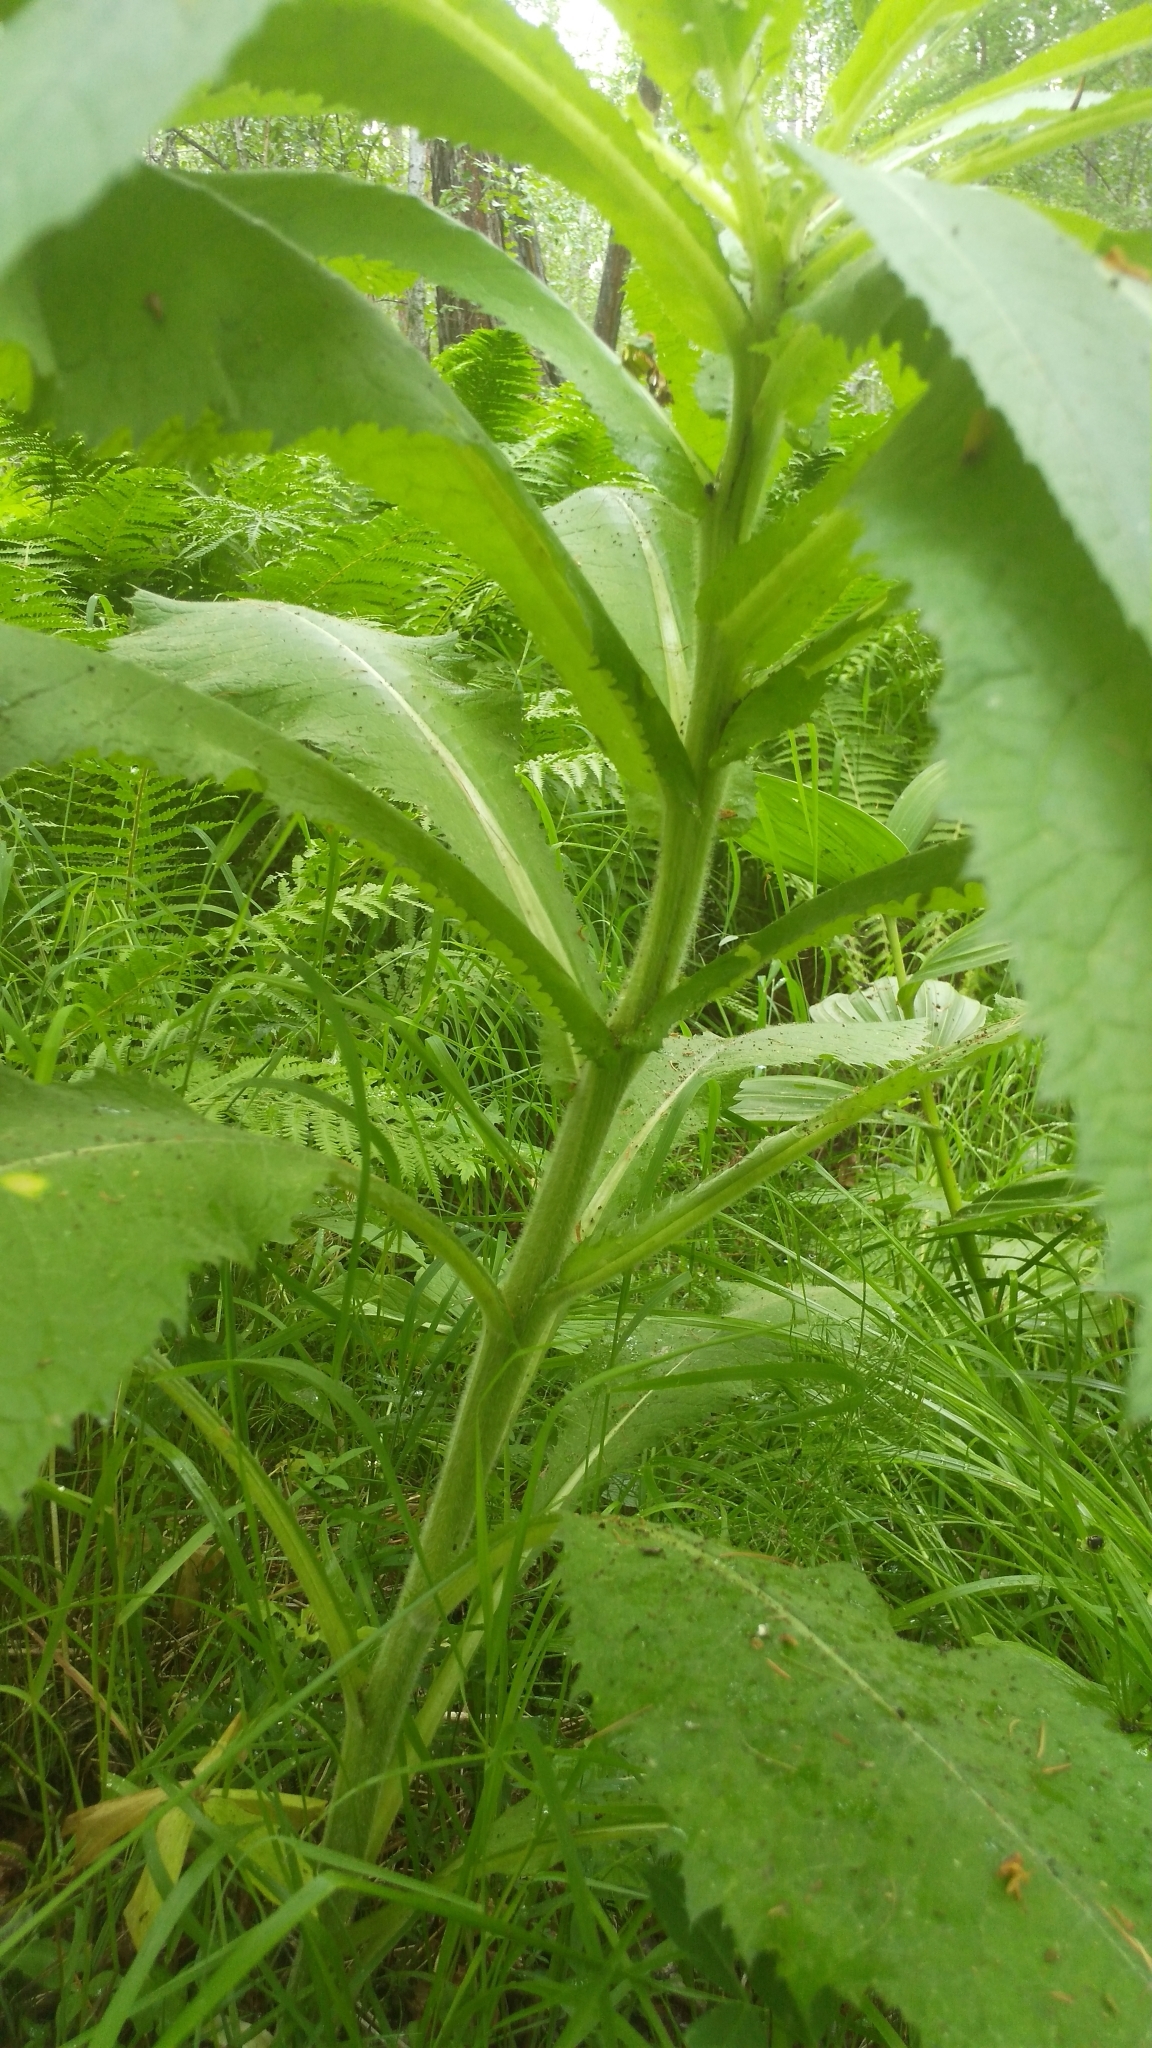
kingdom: Plantae
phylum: Tracheophyta
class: Magnoliopsida
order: Asterales
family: Asteraceae
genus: Cirsium
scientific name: Cirsium helenioides
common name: Melancholy thistle
